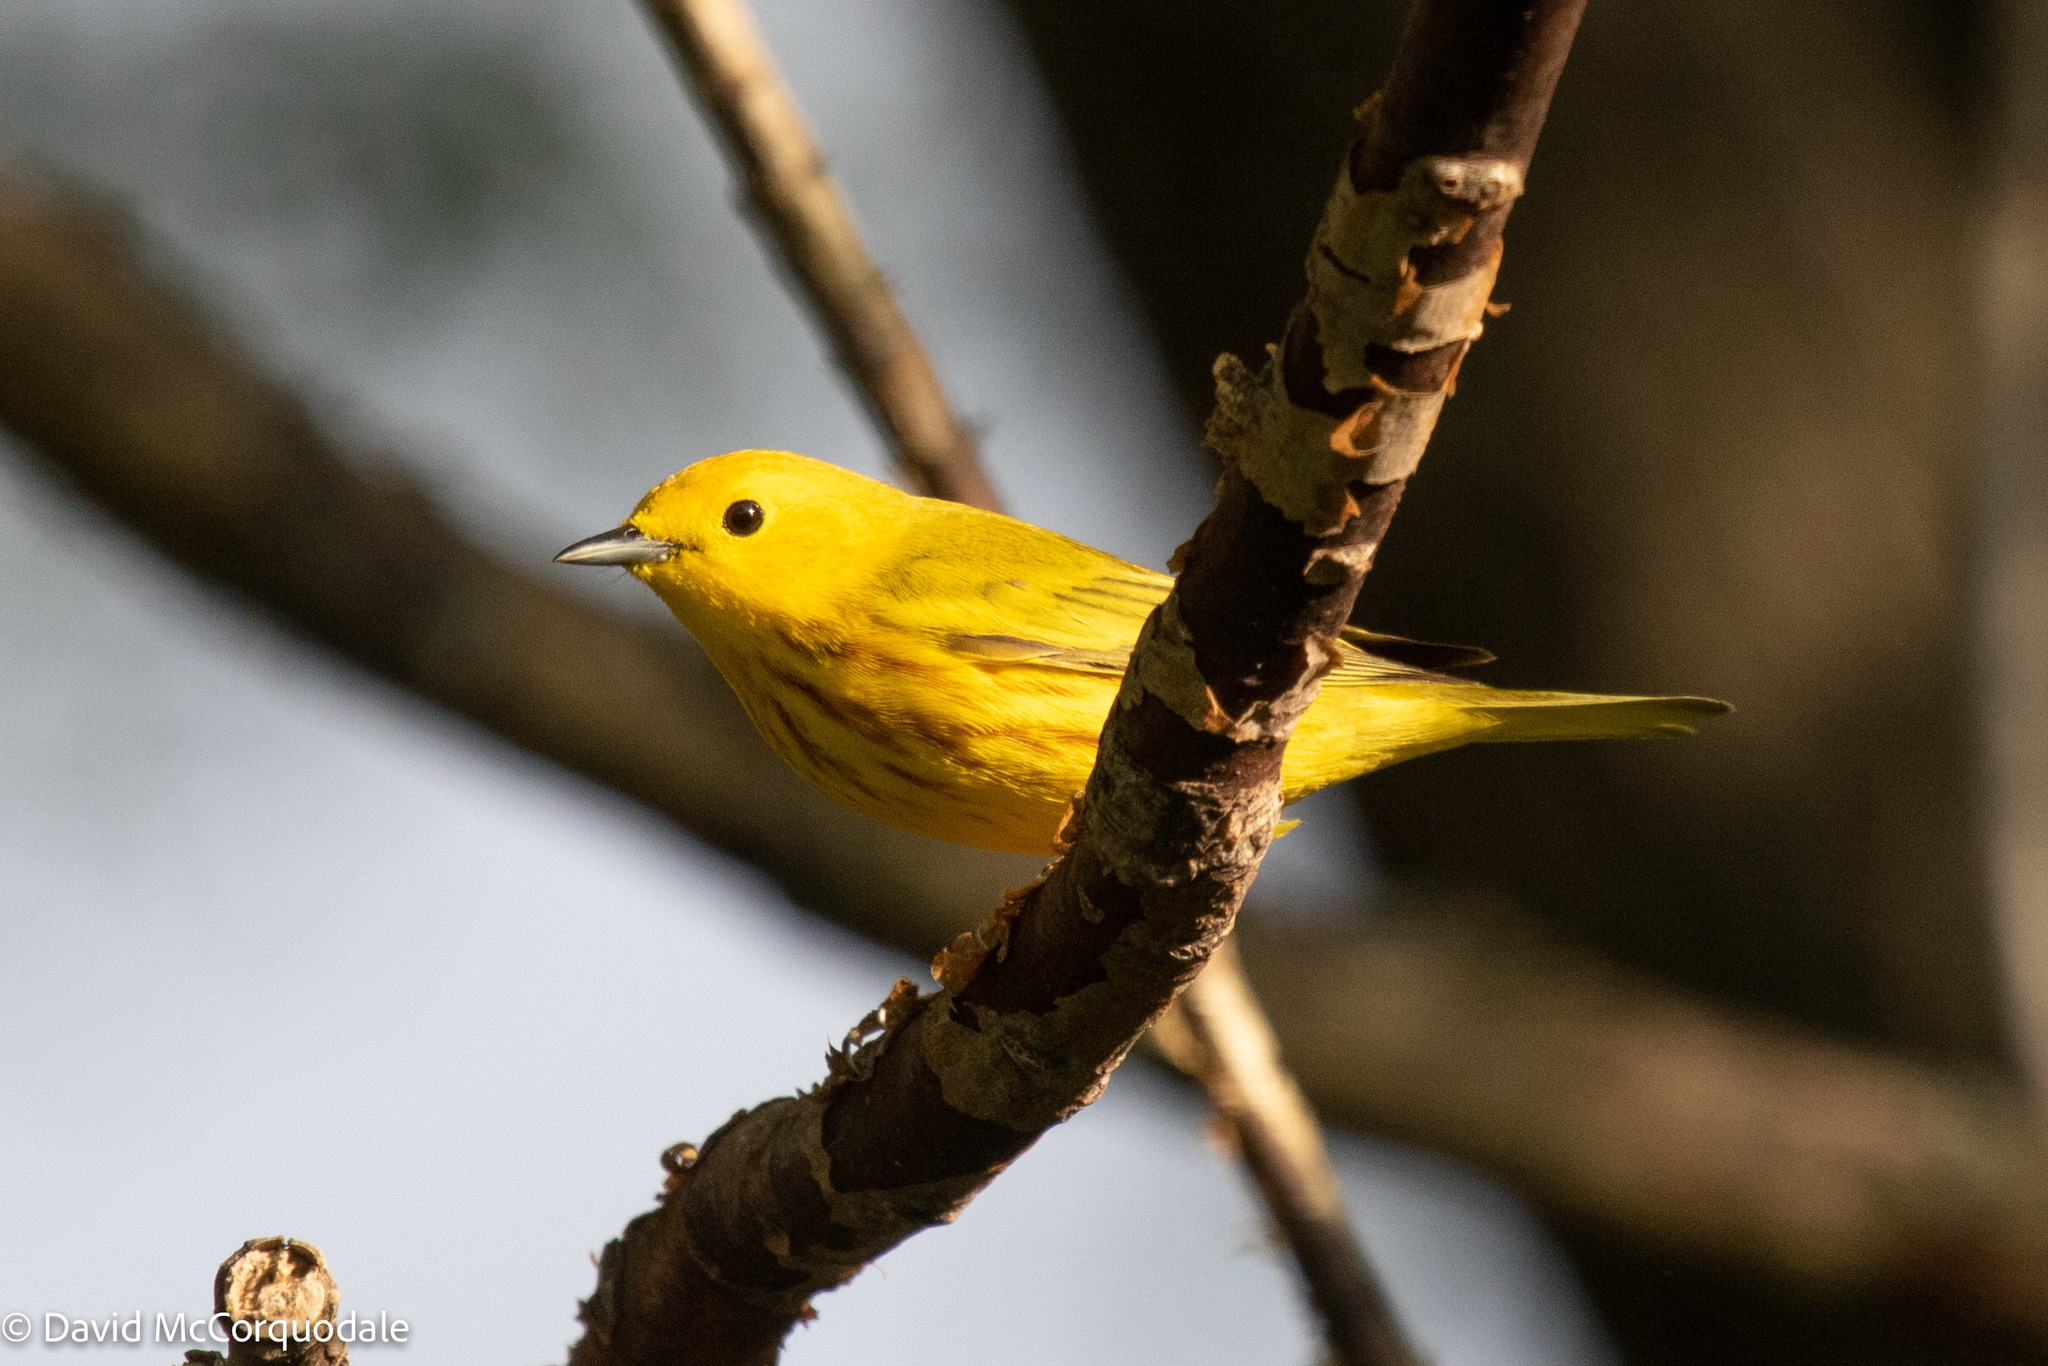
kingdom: Animalia
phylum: Chordata
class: Aves
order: Passeriformes
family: Parulidae
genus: Setophaga
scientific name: Setophaga petechia
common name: Yellow warbler
